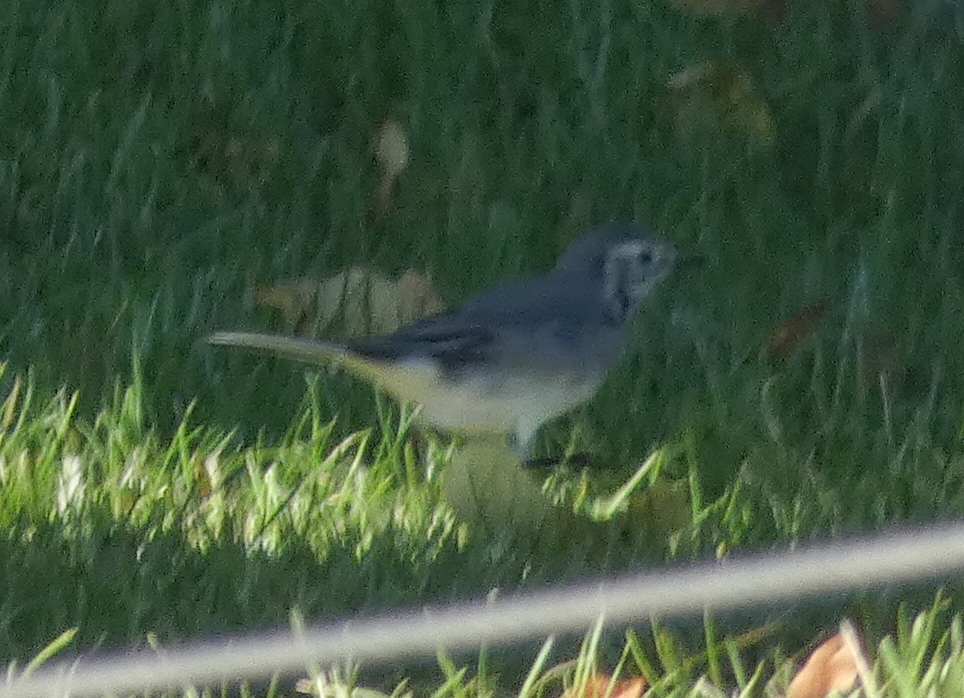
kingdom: Animalia
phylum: Chordata
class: Aves
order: Passeriformes
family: Motacillidae
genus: Motacilla
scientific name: Motacilla alba
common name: White wagtail
